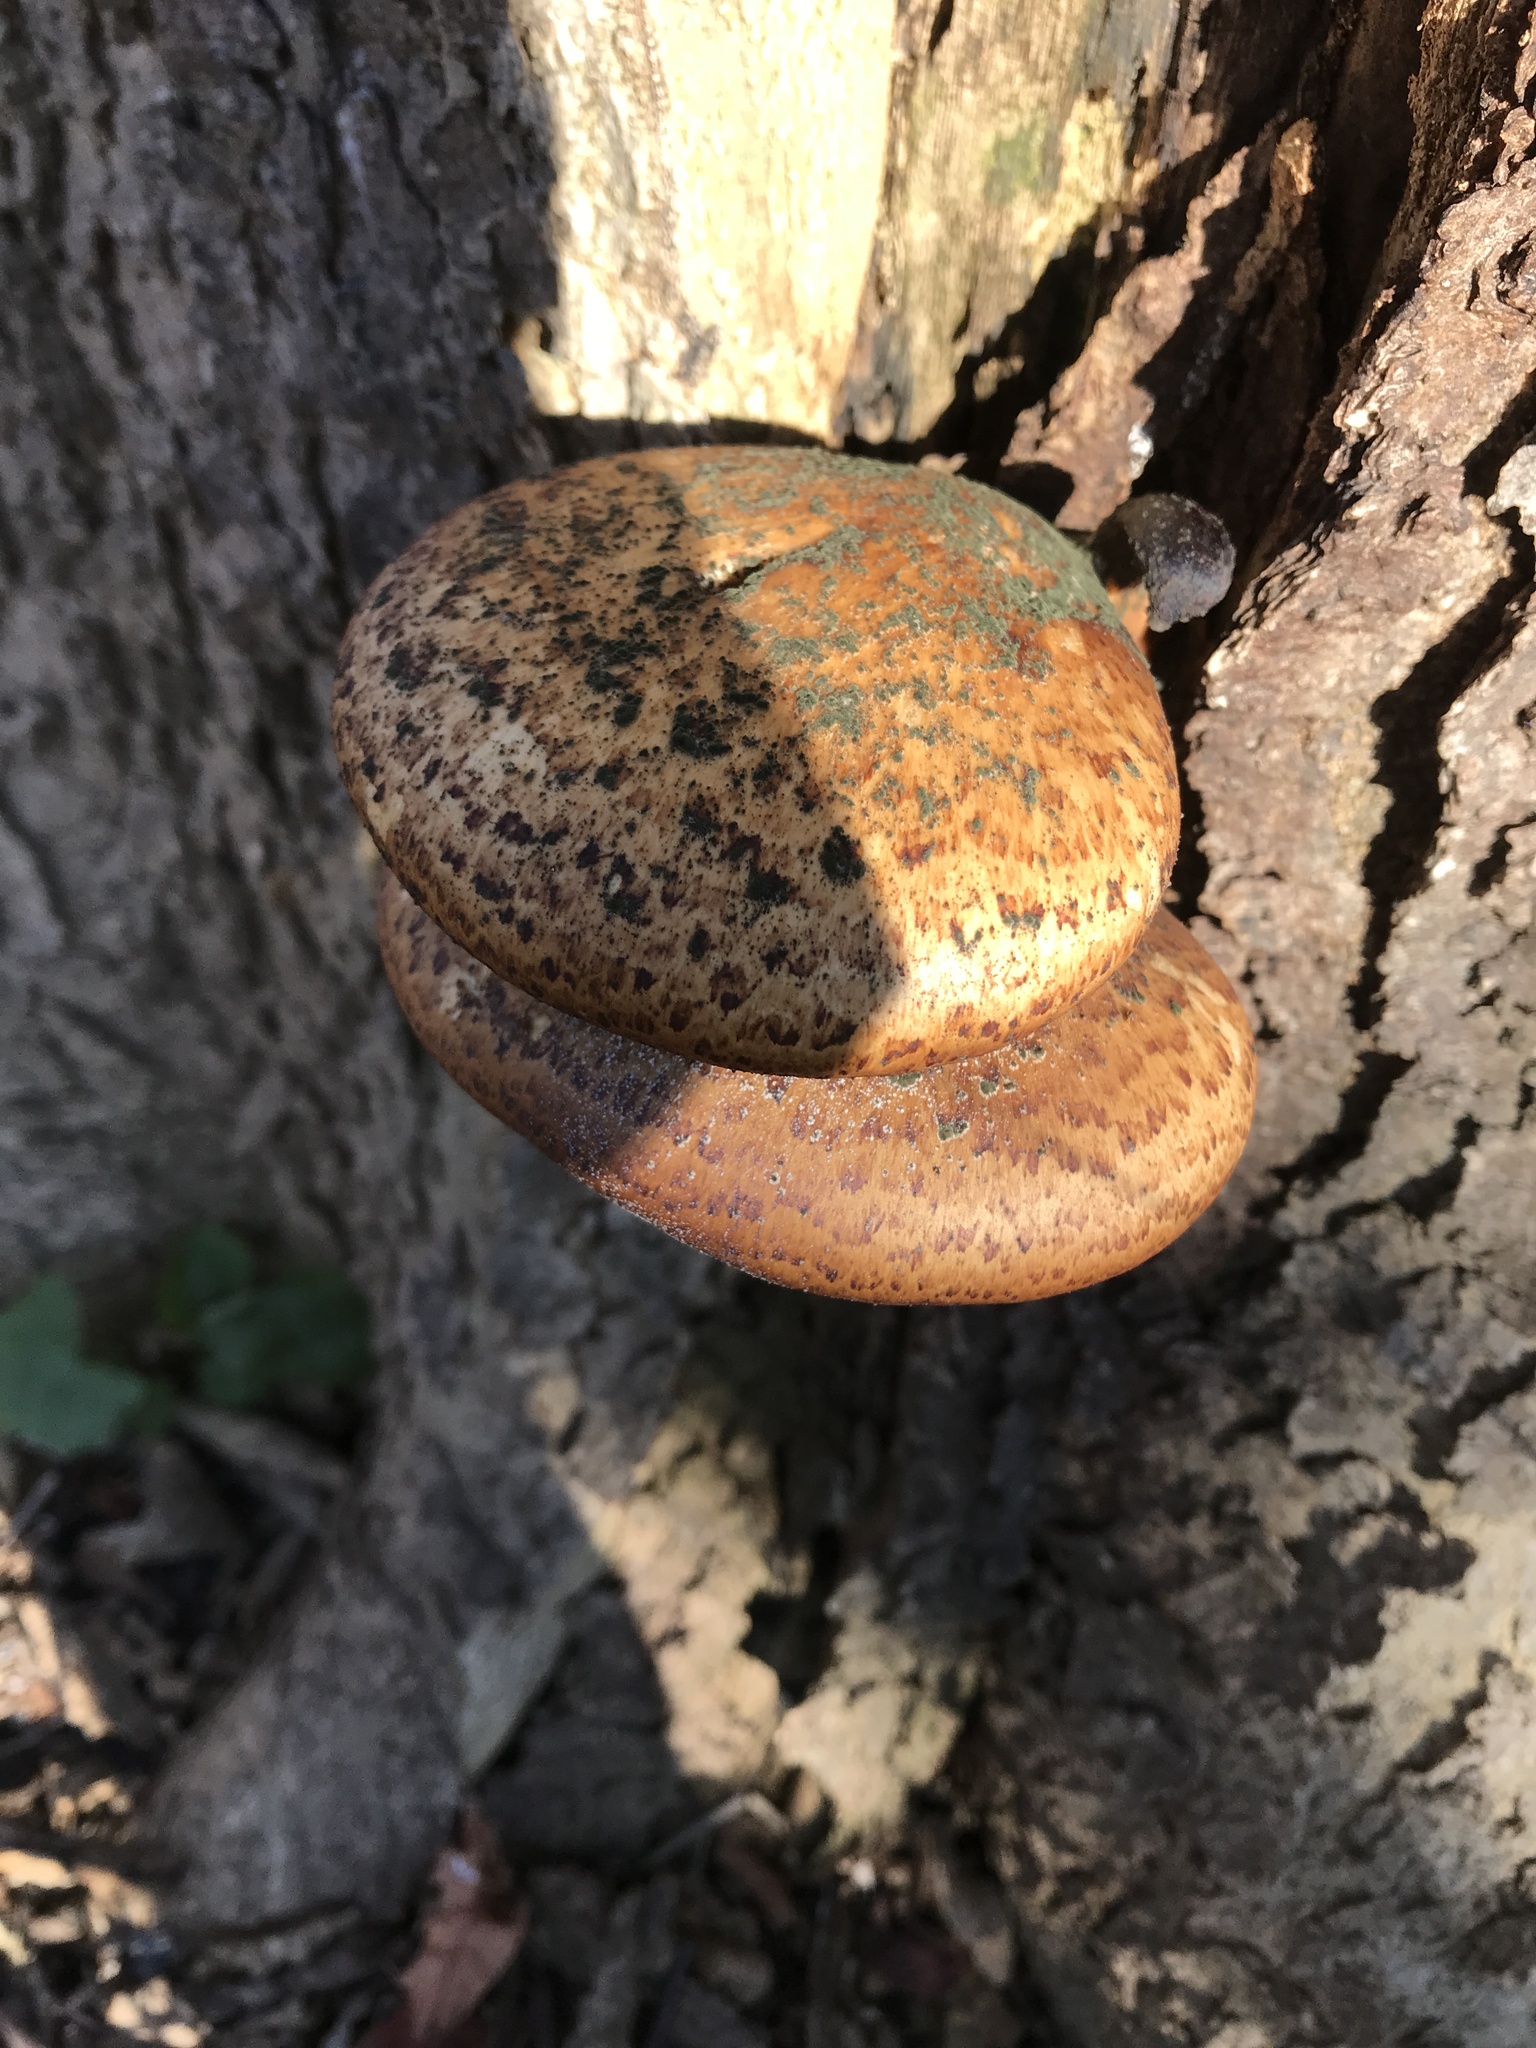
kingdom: Fungi
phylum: Basidiomycota
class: Agaricomycetes
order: Polyporales
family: Polyporaceae
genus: Cerioporus
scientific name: Cerioporus squamosus
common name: Dryad's saddle
